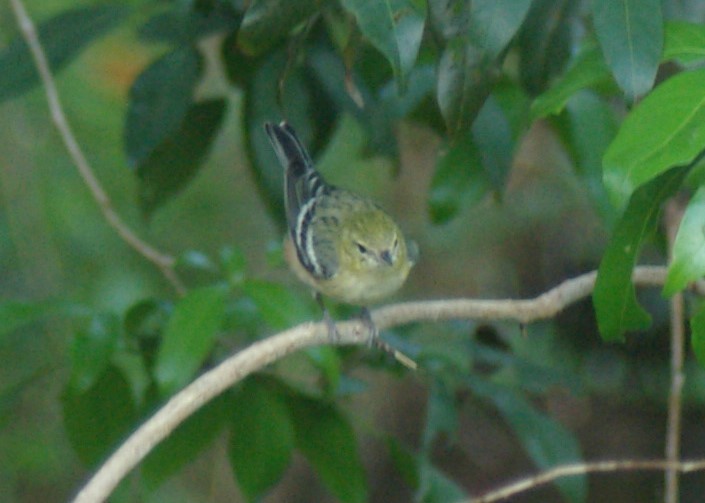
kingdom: Animalia
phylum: Chordata
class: Aves
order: Passeriformes
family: Parulidae
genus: Setophaga
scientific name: Setophaga castanea
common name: Bay-breasted warbler
